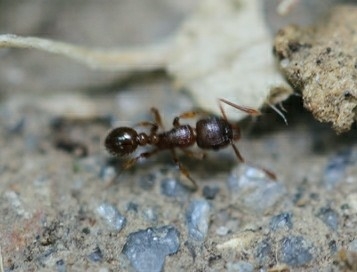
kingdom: Animalia
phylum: Arthropoda
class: Insecta
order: Hymenoptera
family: Formicidae
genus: Tetramorium
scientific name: Tetramorium grassii
